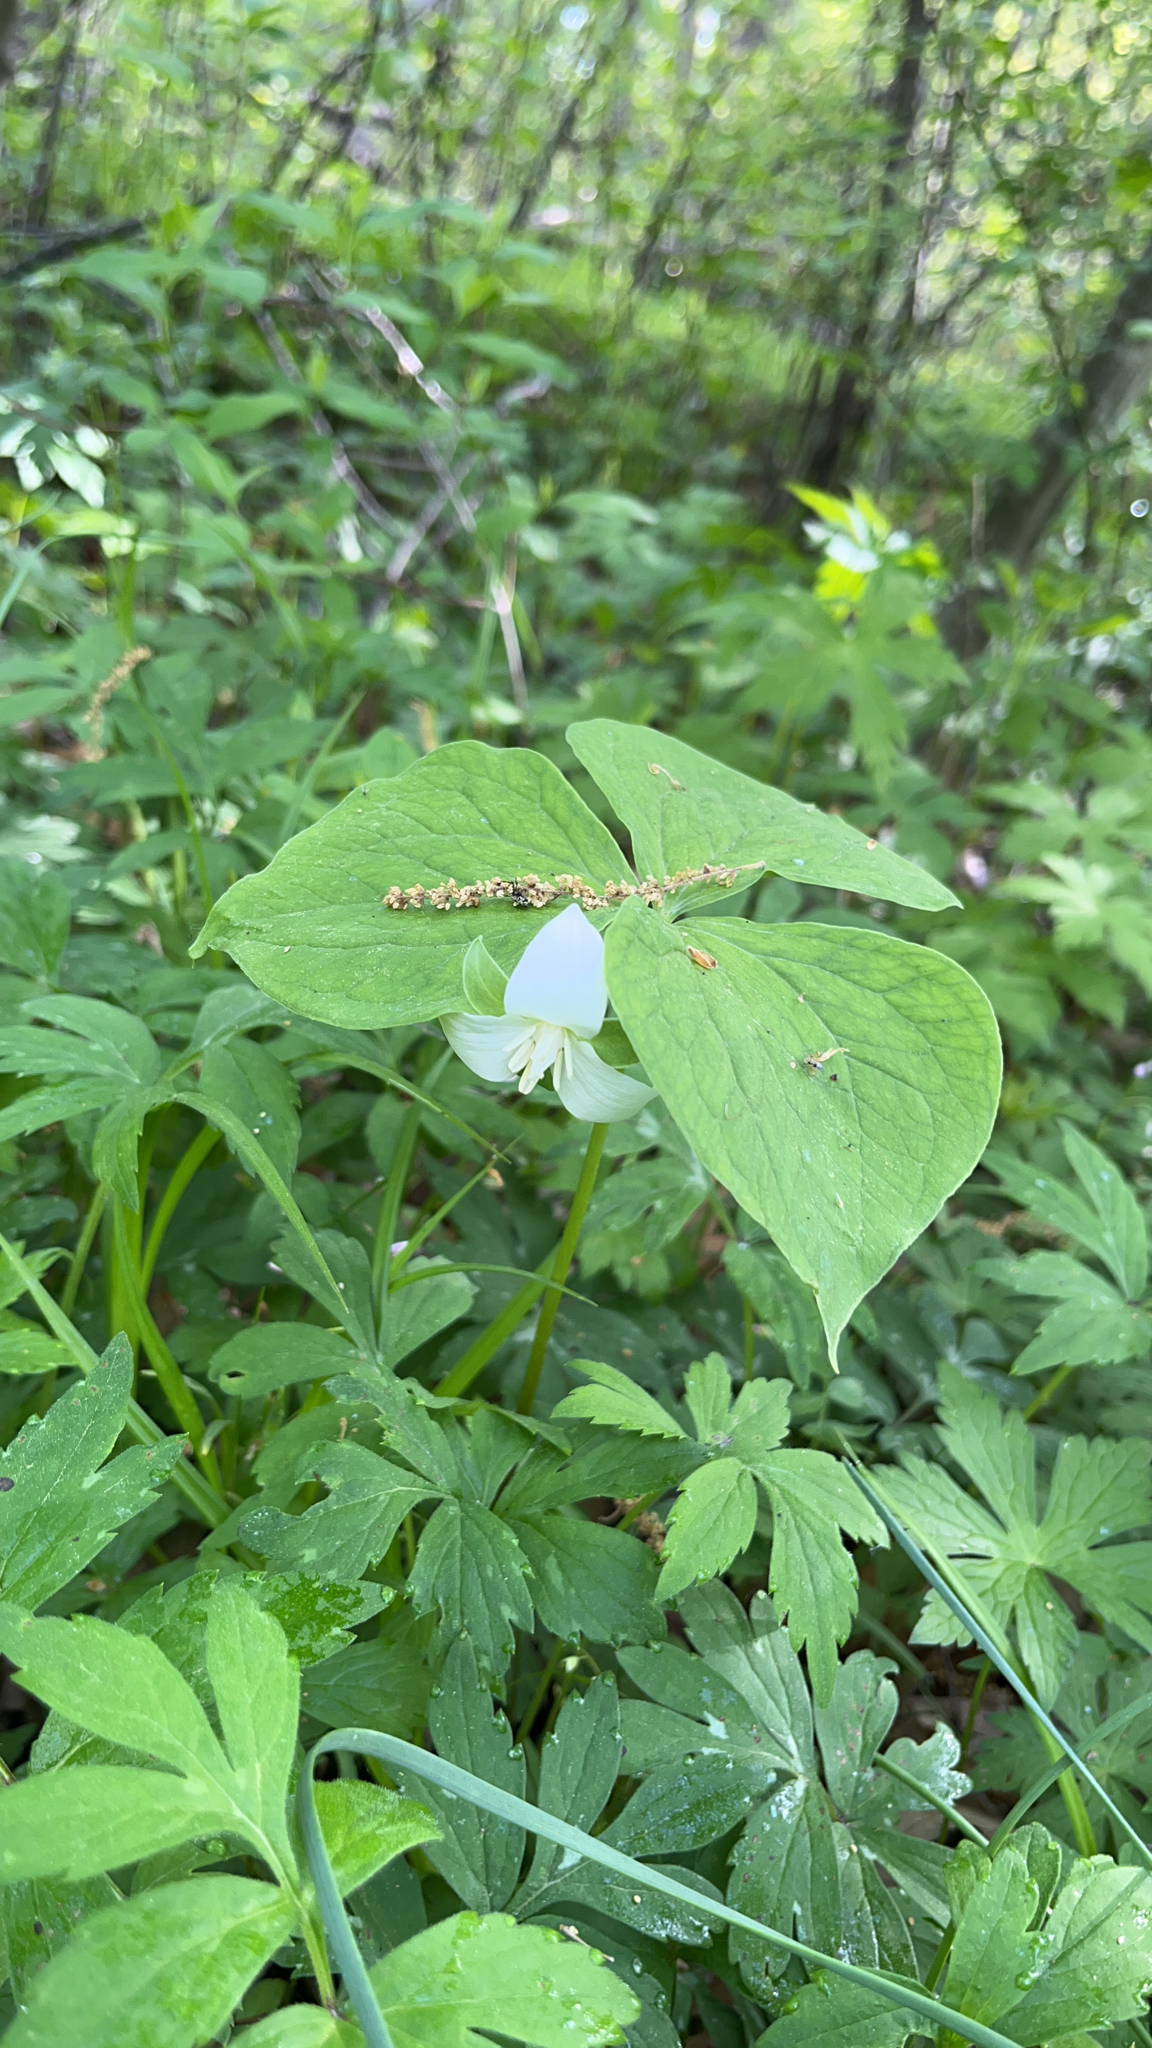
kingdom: Plantae
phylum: Tracheophyta
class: Liliopsida
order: Liliales
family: Melanthiaceae
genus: Trillium
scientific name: Trillium flexipes
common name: Drooping trillium
